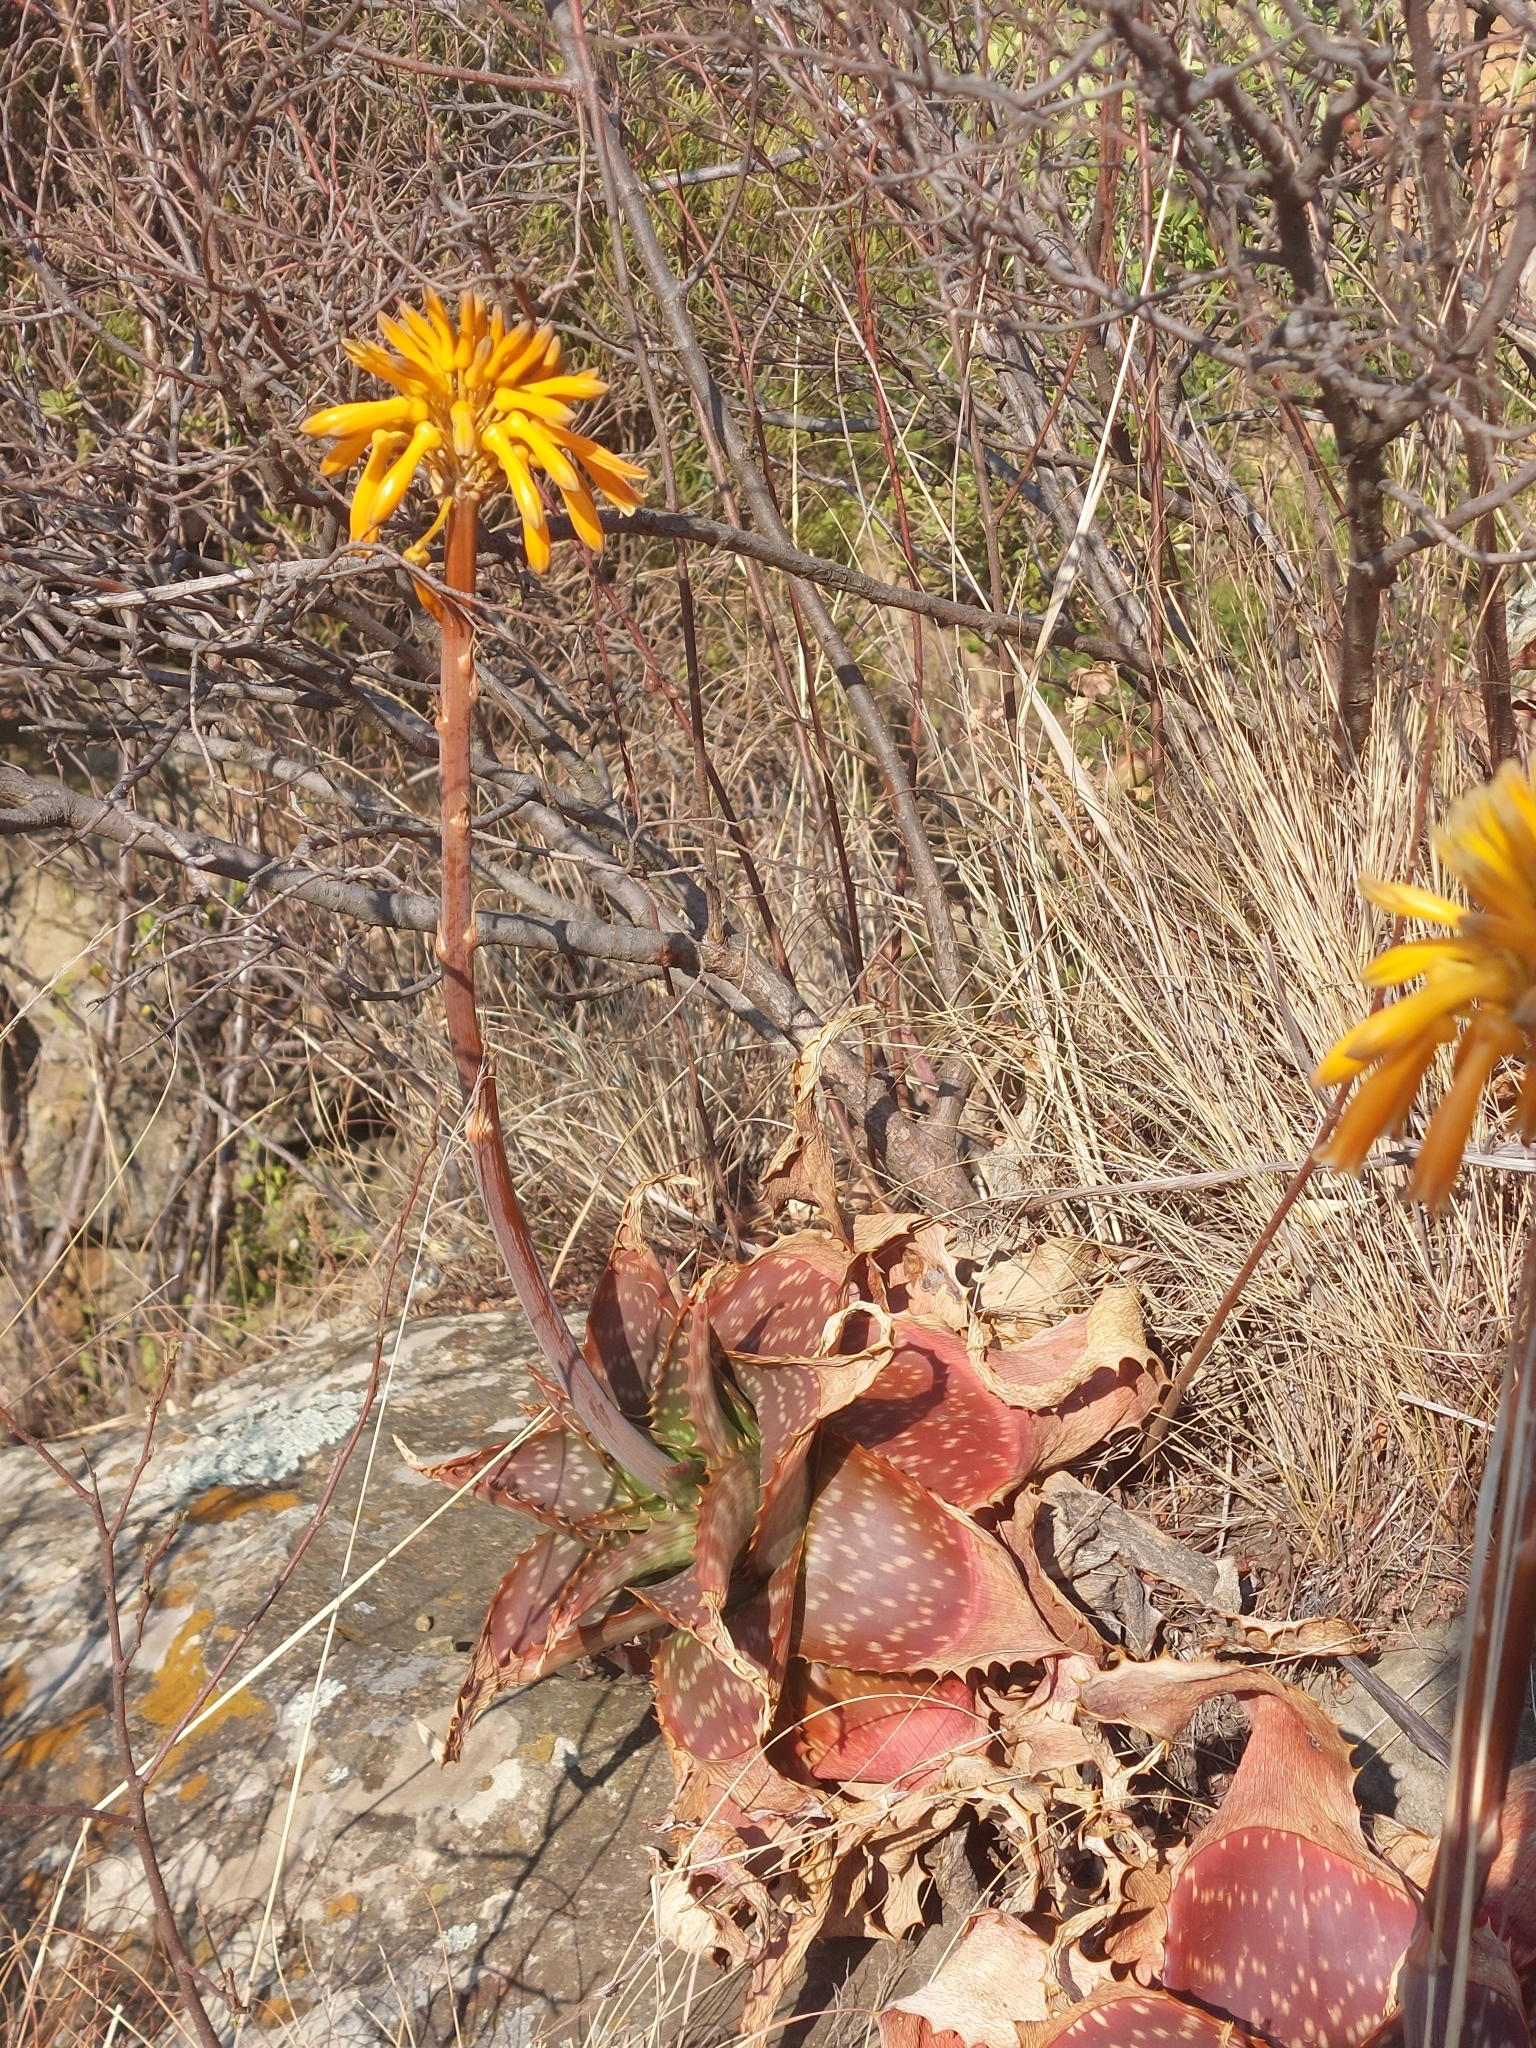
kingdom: Plantae
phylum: Tracheophyta
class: Liliopsida
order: Asparagales
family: Asphodelaceae
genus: Aloe
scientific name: Aloe maculata
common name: Broadleaf aloe
